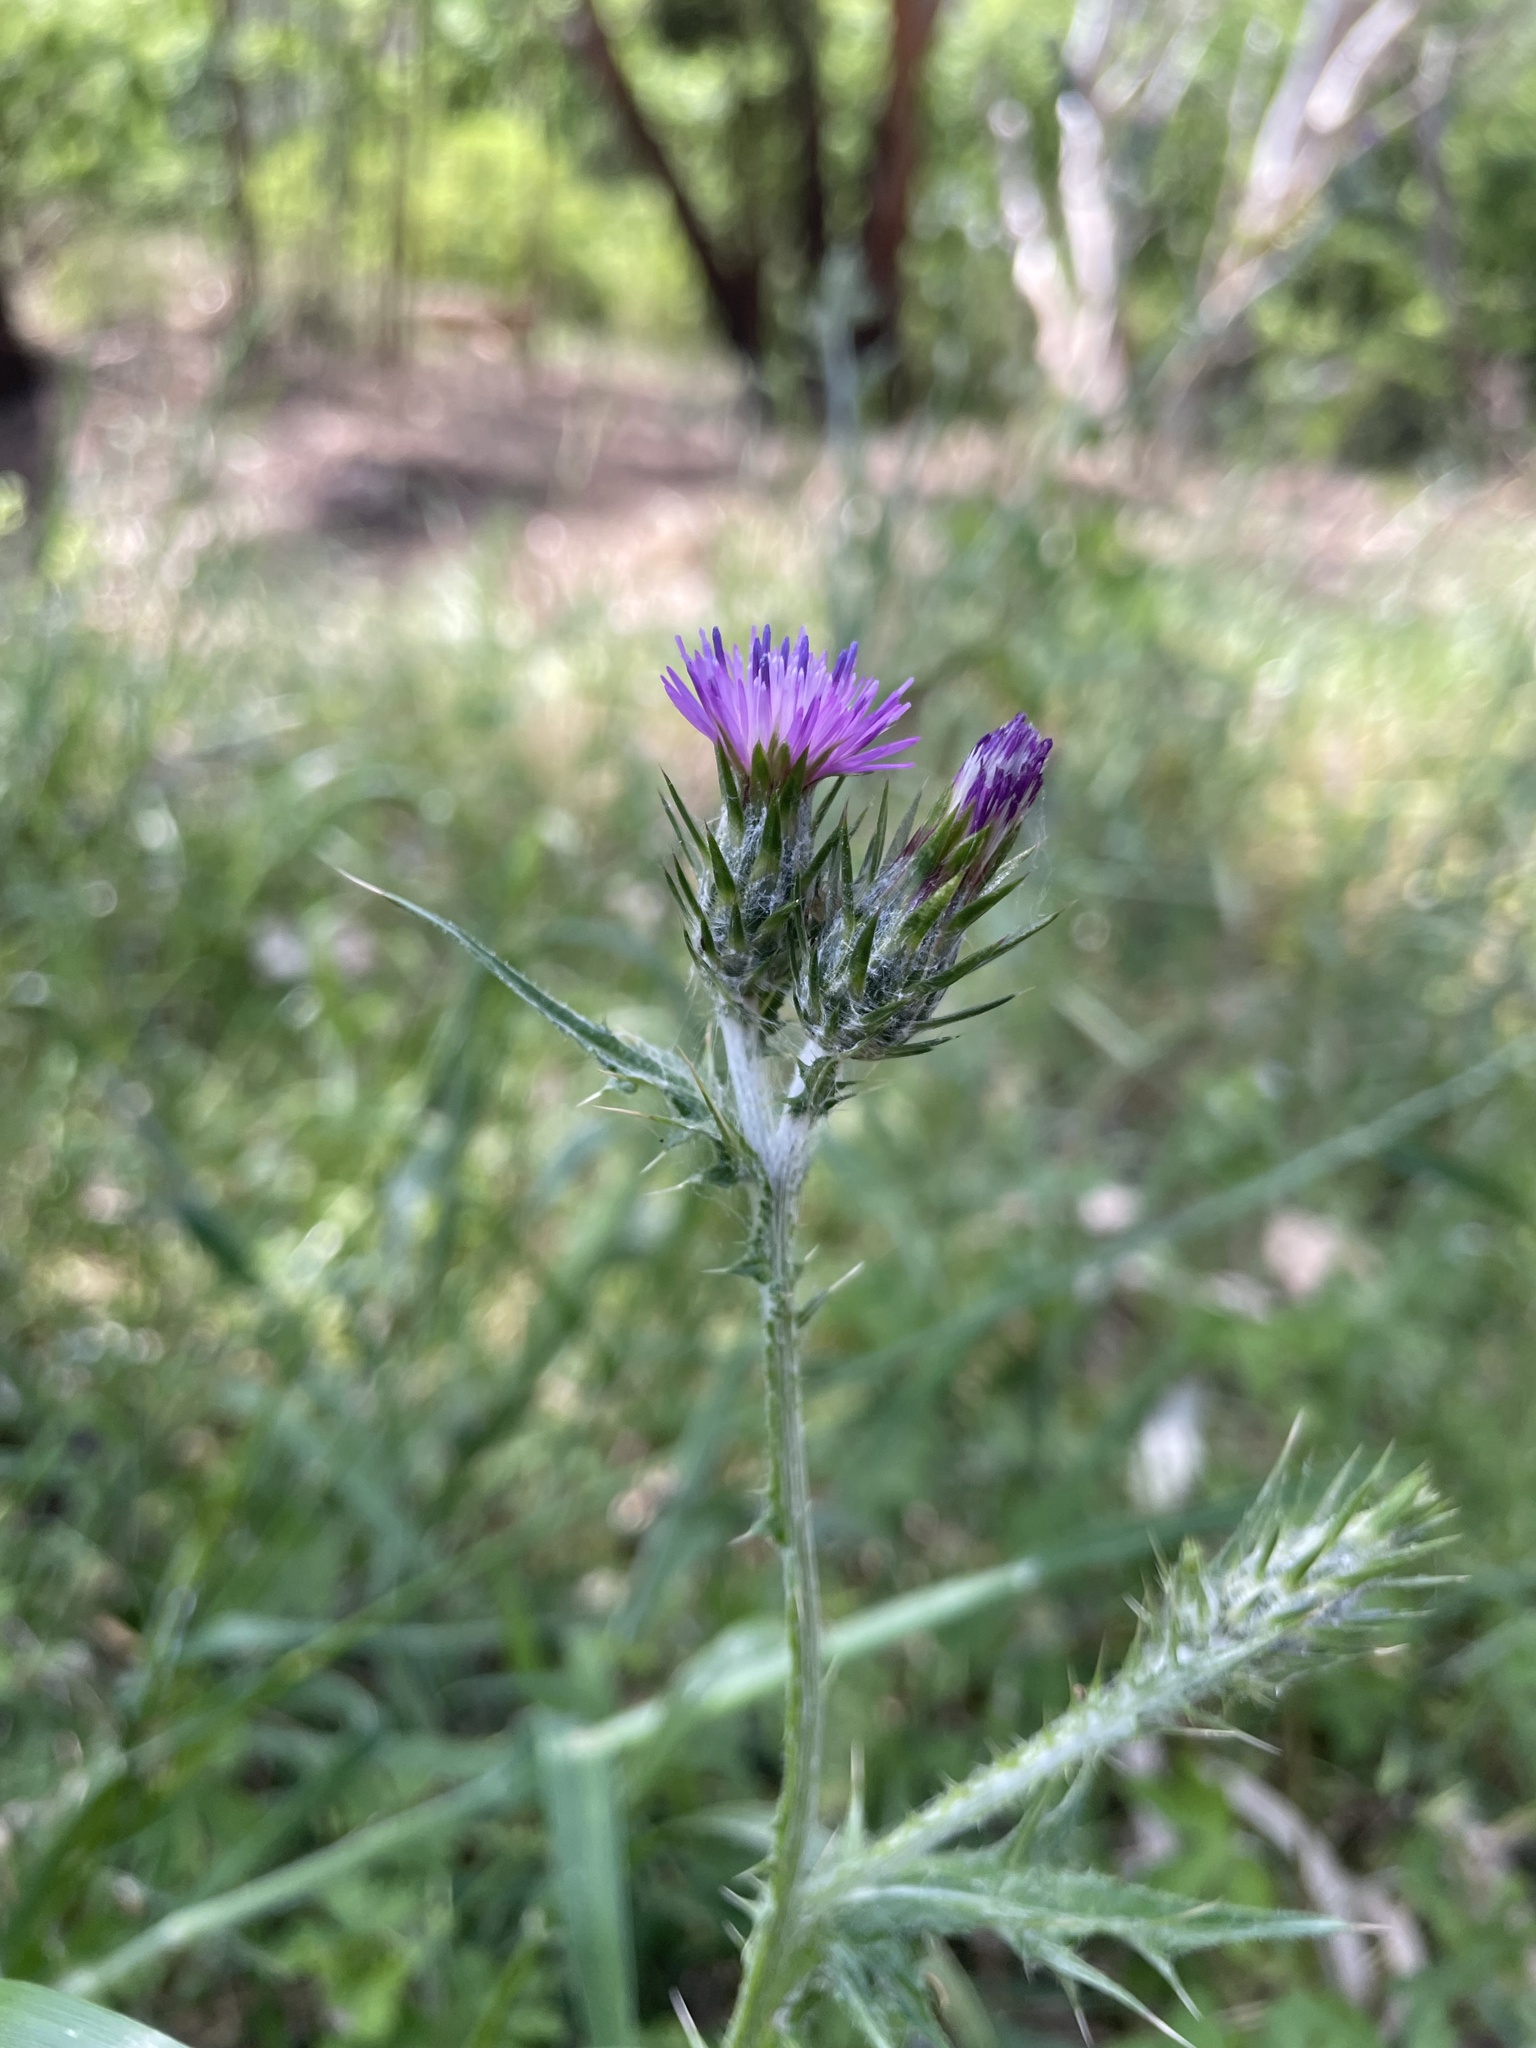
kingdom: Plantae
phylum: Tracheophyta
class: Magnoliopsida
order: Asterales
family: Asteraceae
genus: Carduus
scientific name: Carduus pycnocephalus
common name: Plymouth thistle
